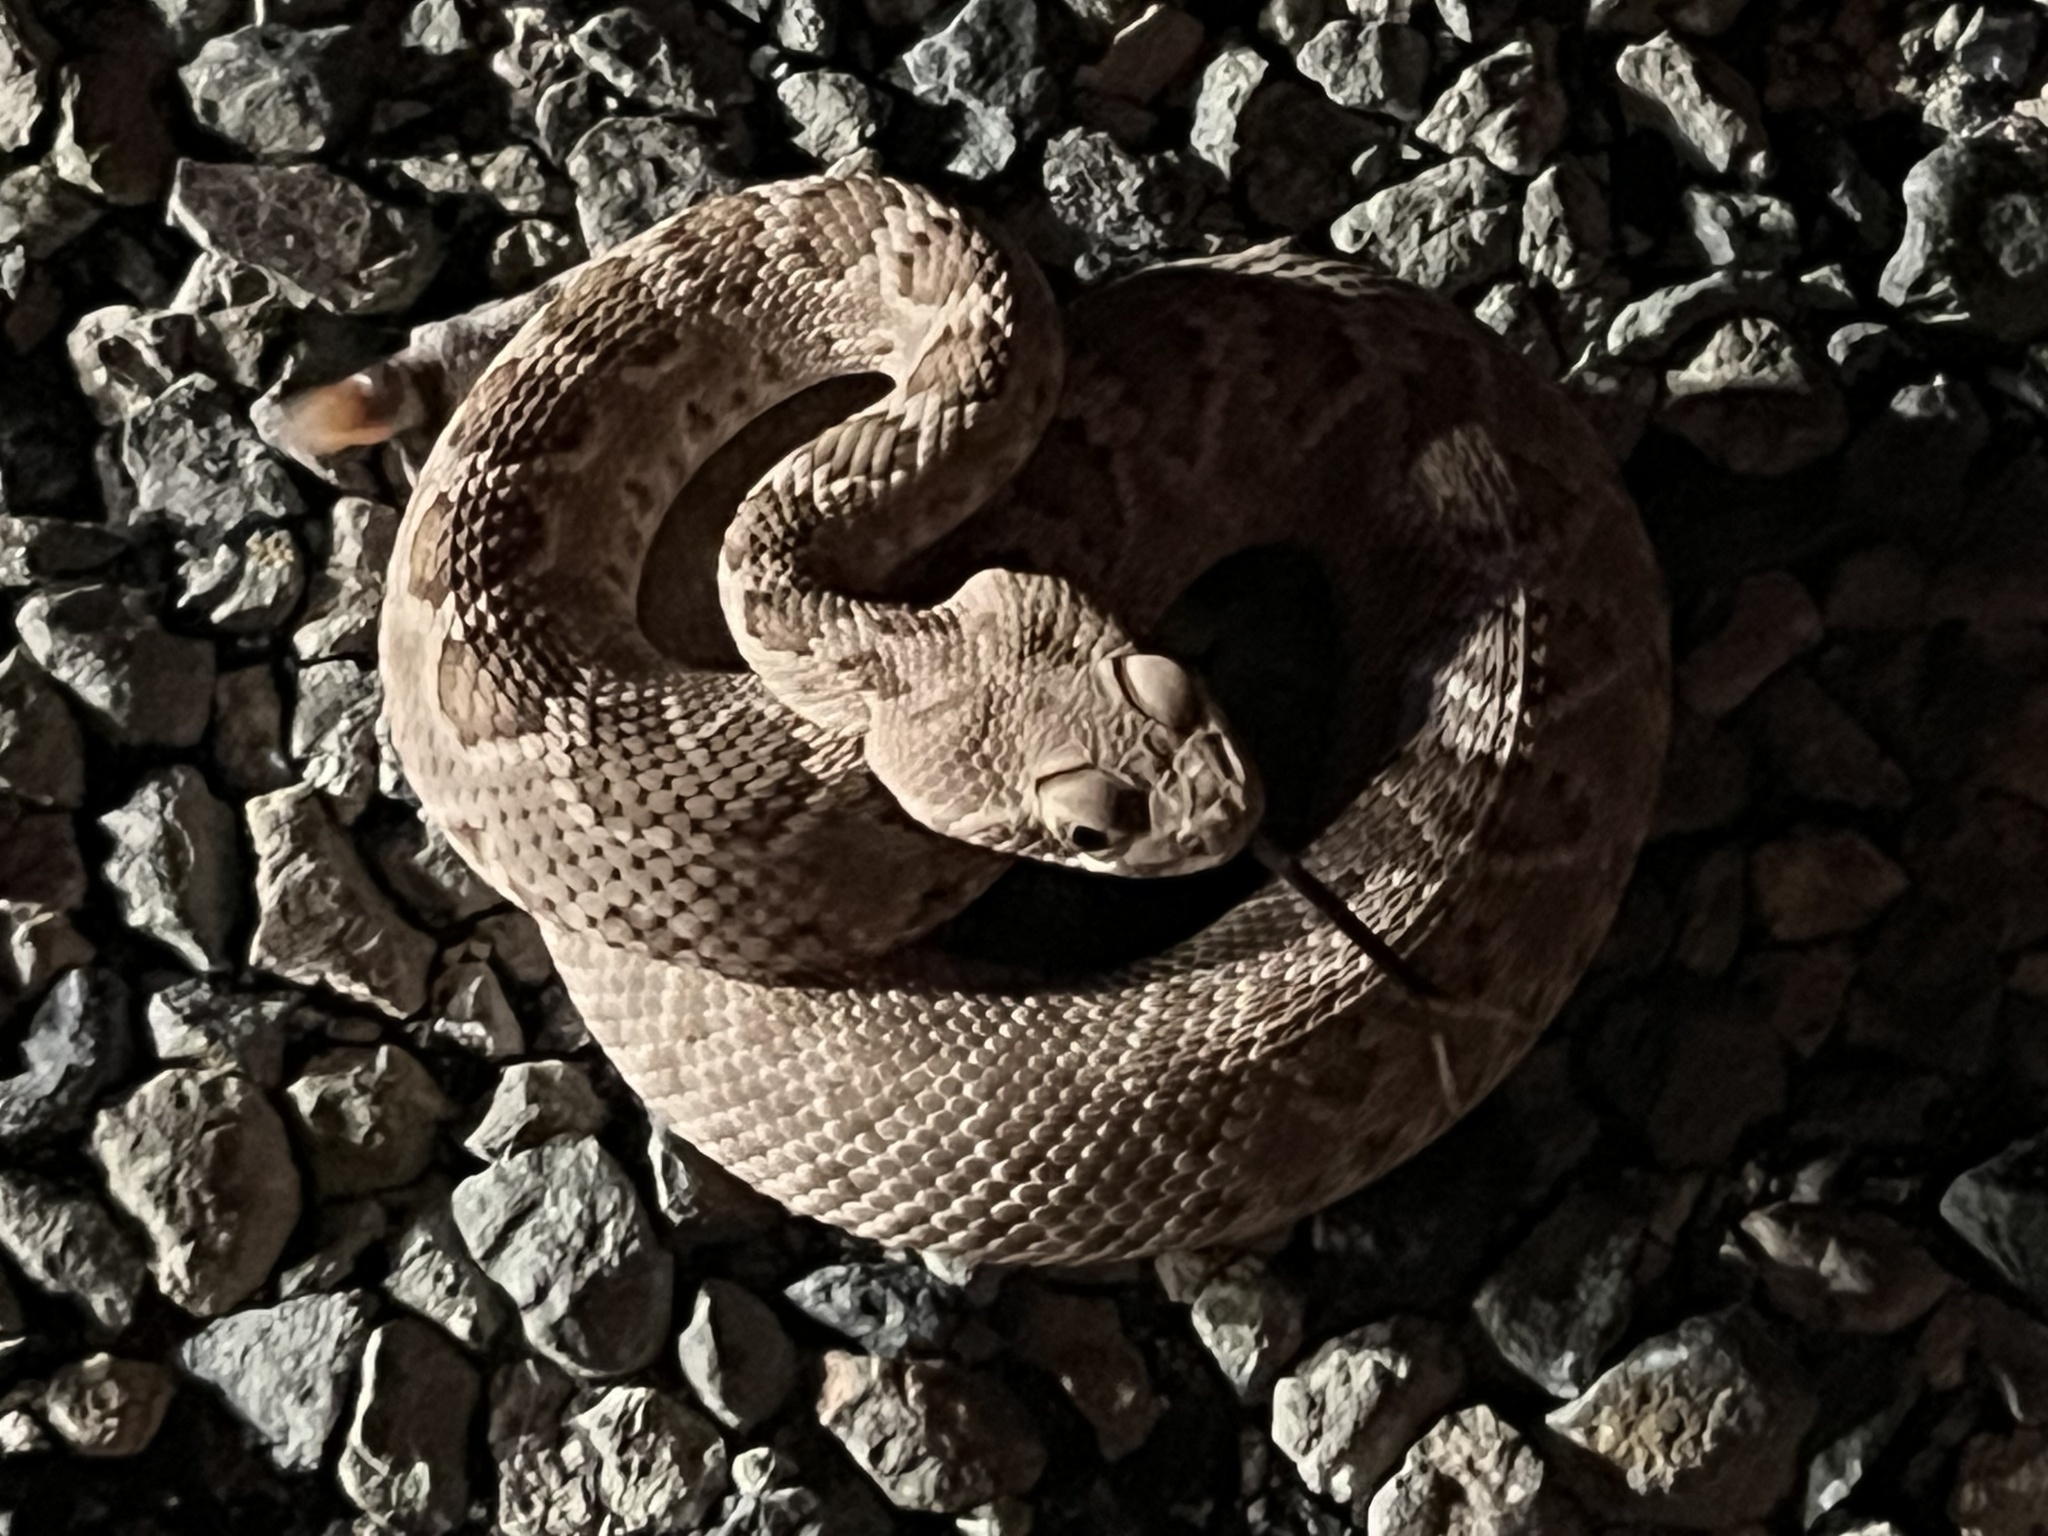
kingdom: Animalia
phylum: Chordata
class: Squamata
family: Viperidae
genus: Crotalus
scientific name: Crotalus scutulatus
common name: Scutulatus
